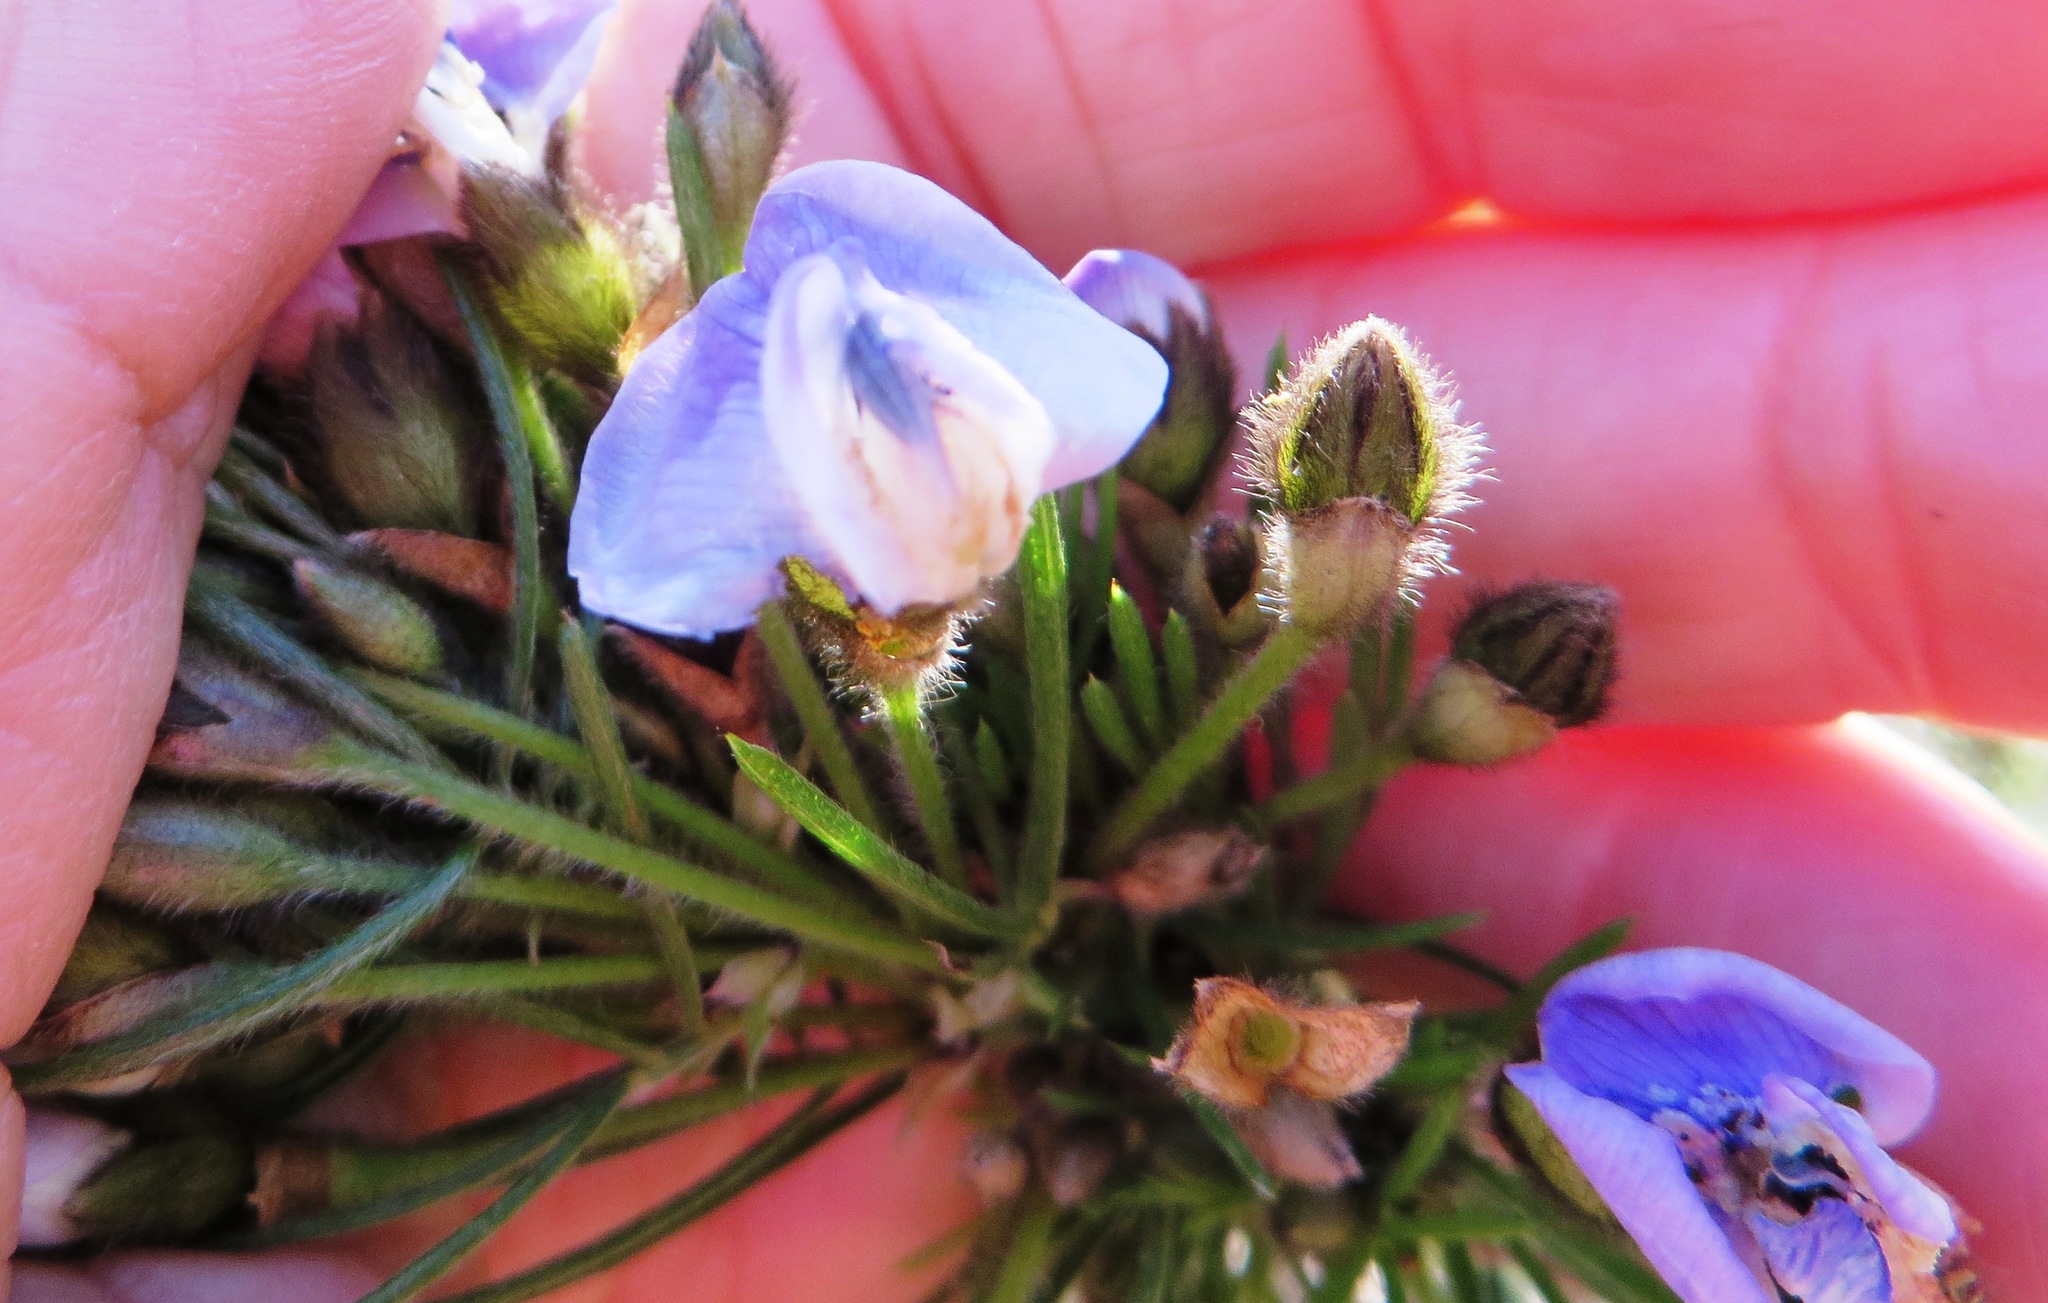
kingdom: Plantae
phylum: Tracheophyta
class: Magnoliopsida
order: Fabales
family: Fabaceae
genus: Psoralea
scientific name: Psoralea arborea
